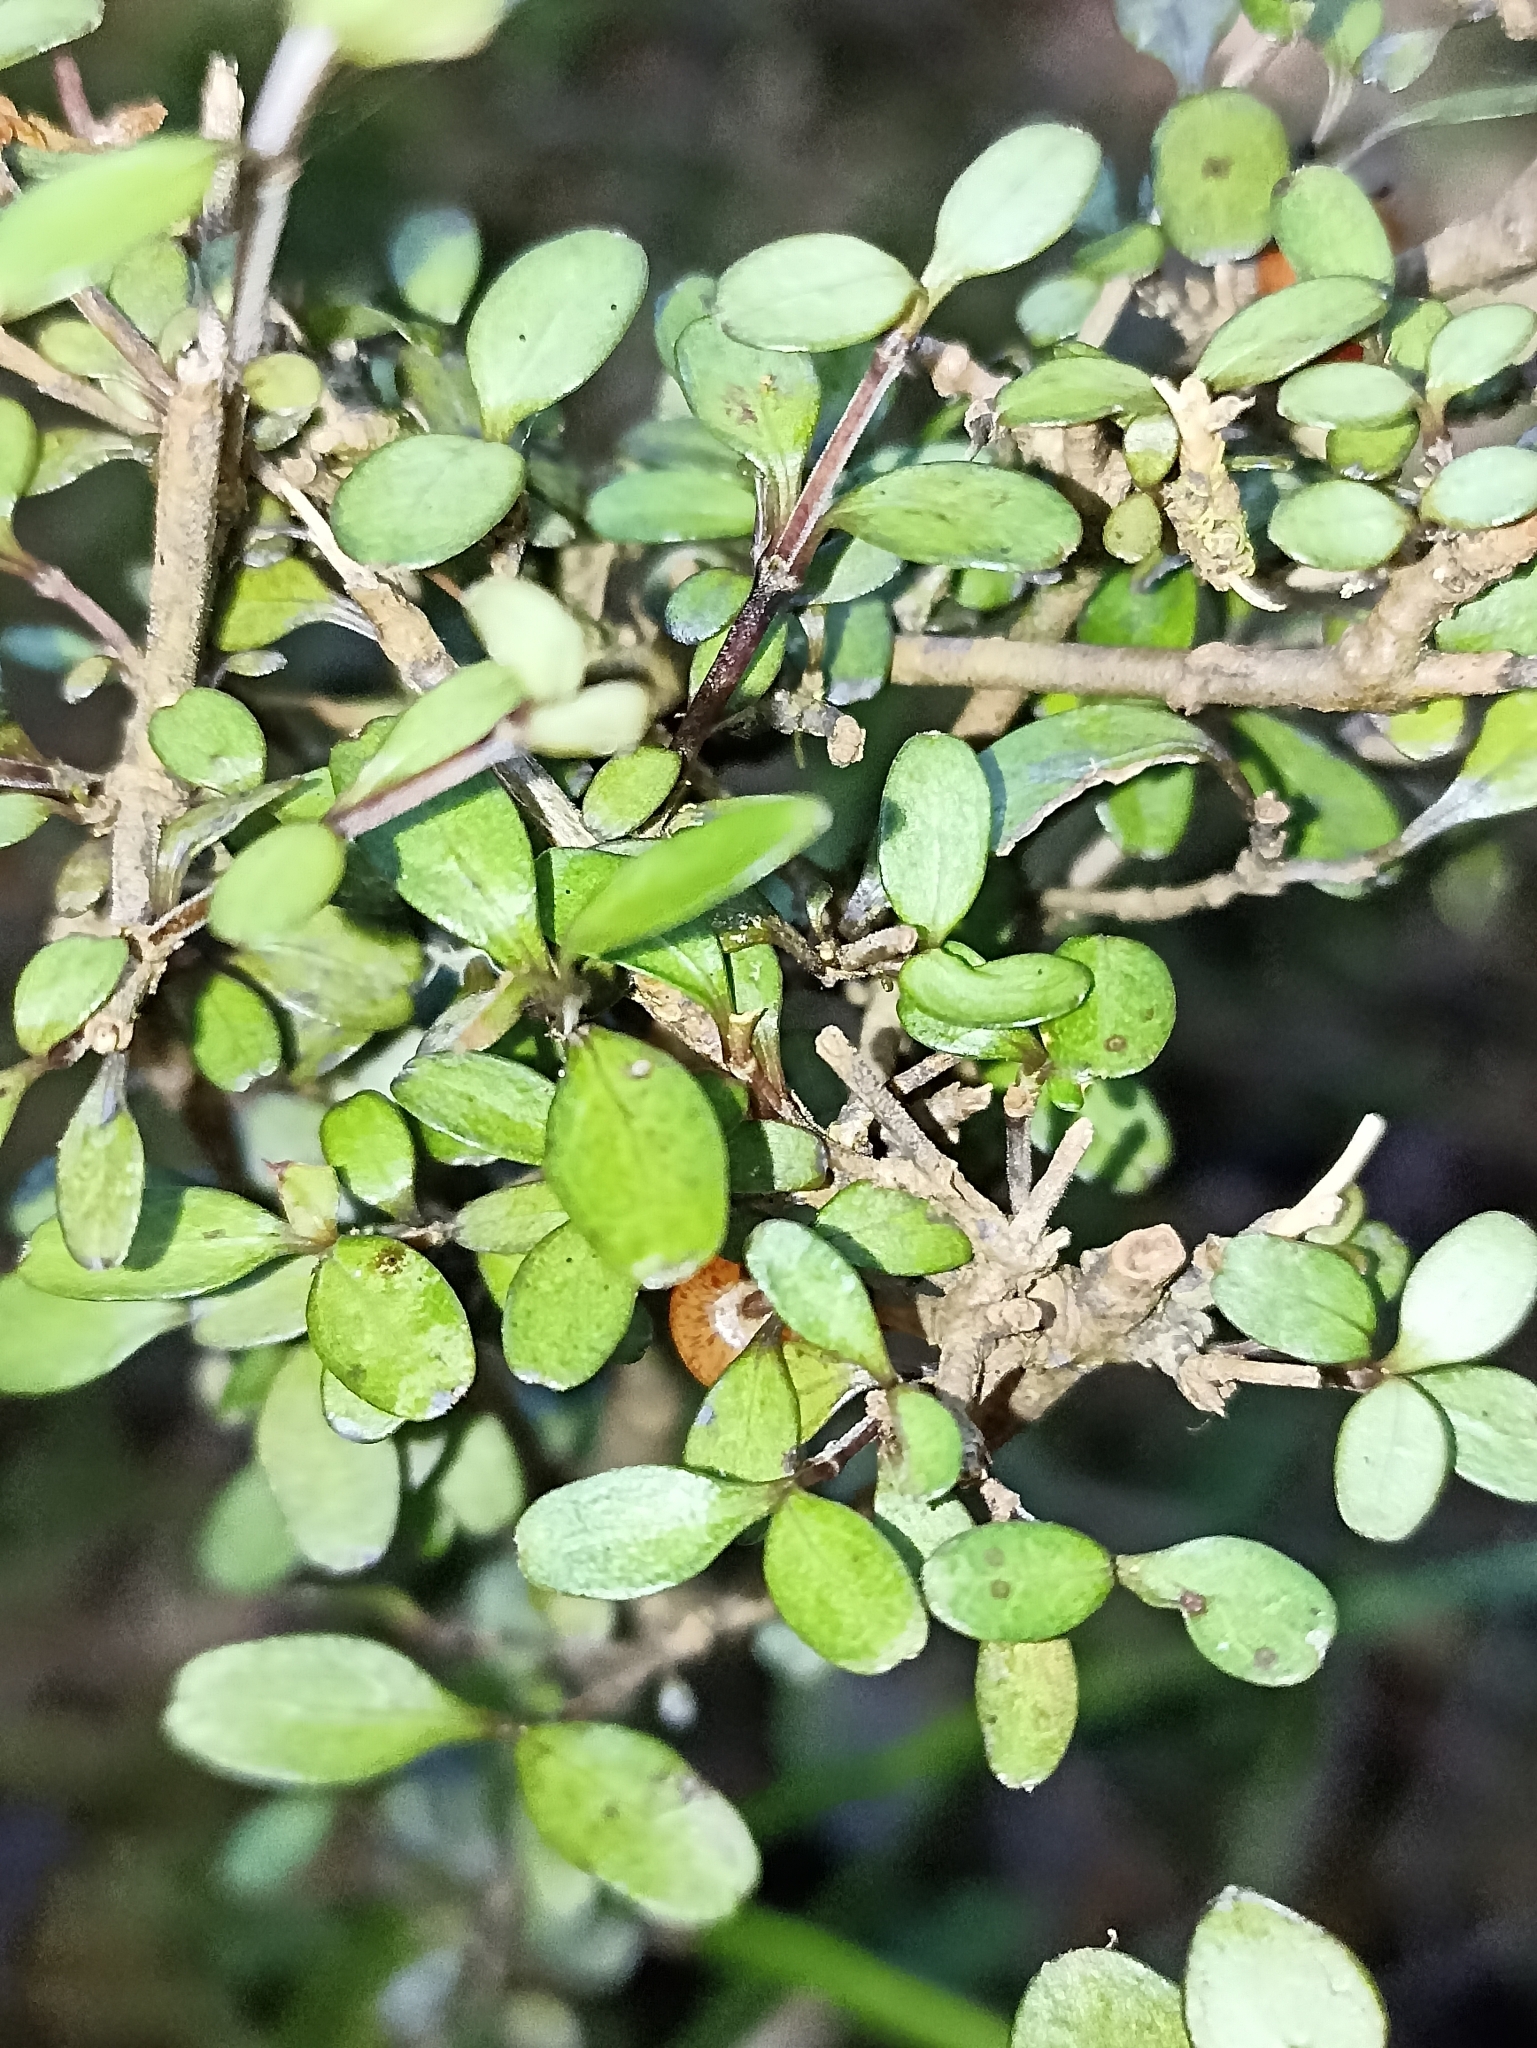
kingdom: Plantae
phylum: Tracheophyta
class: Magnoliopsida
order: Gentianales
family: Rubiaceae
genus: Coprosma
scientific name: Coprosma colensoi
